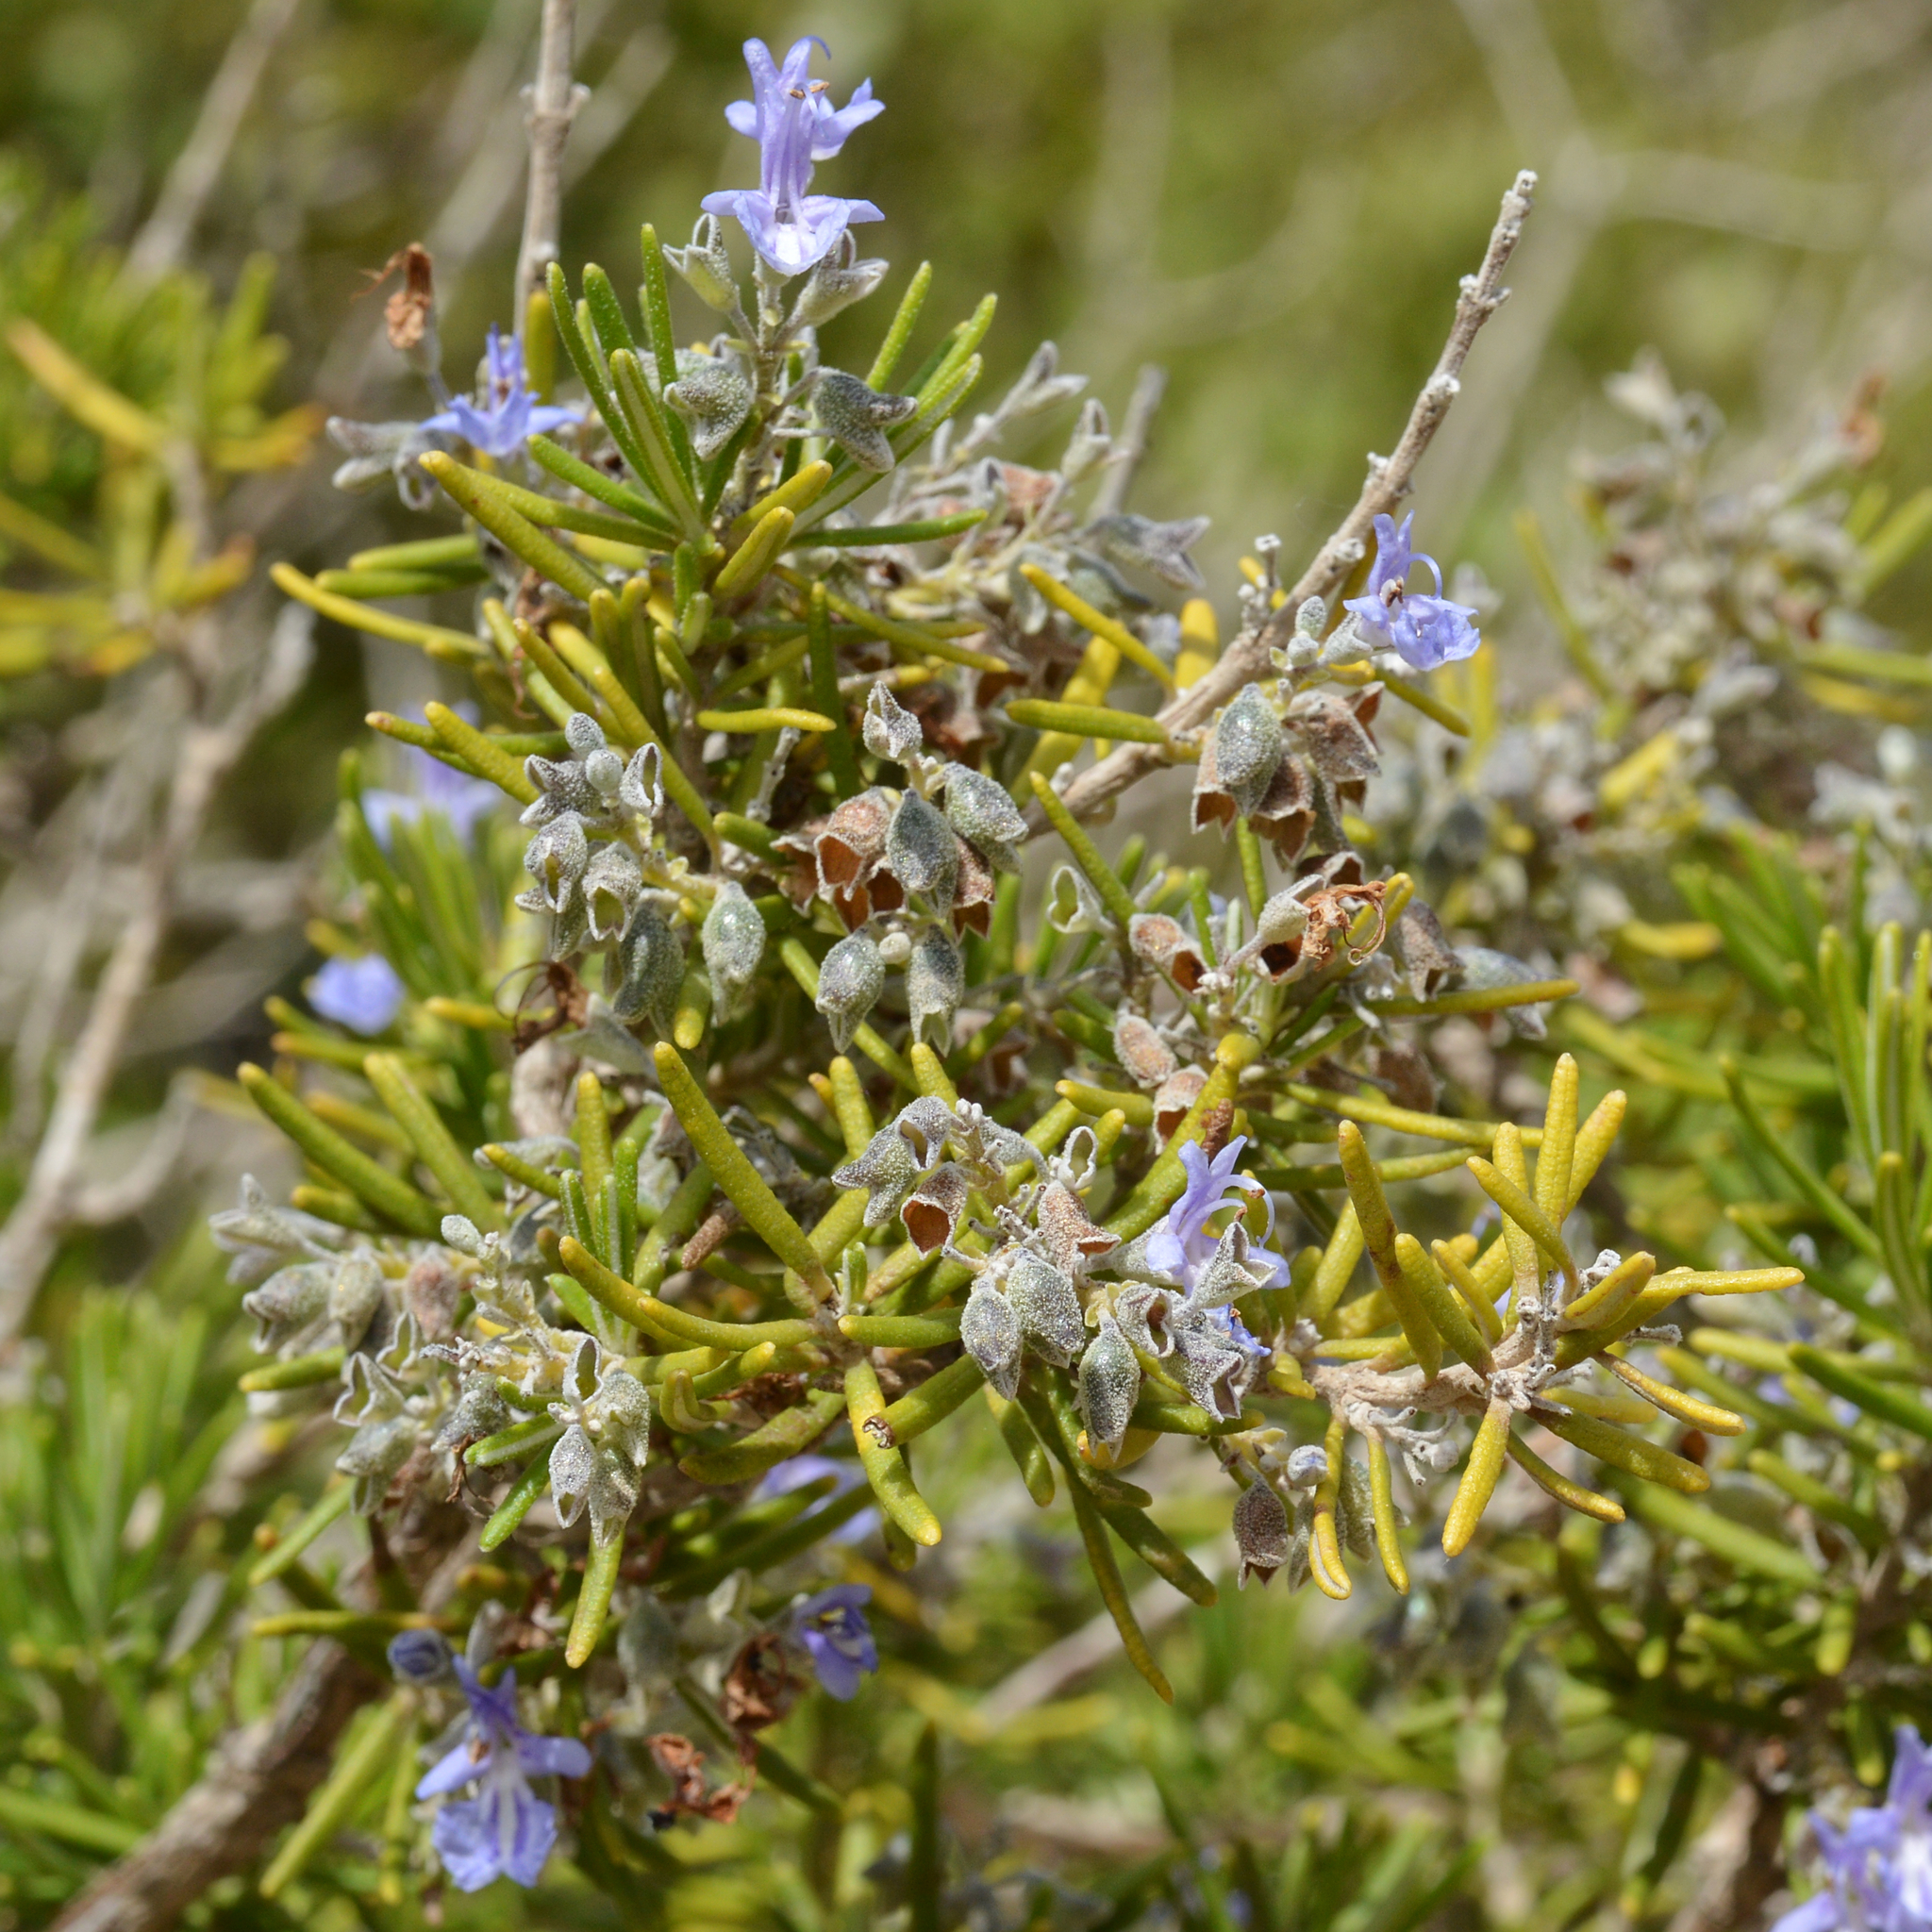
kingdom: Plantae
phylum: Tracheophyta
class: Magnoliopsida
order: Lamiales
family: Lamiaceae
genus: Salvia
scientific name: Salvia rosmarinus
